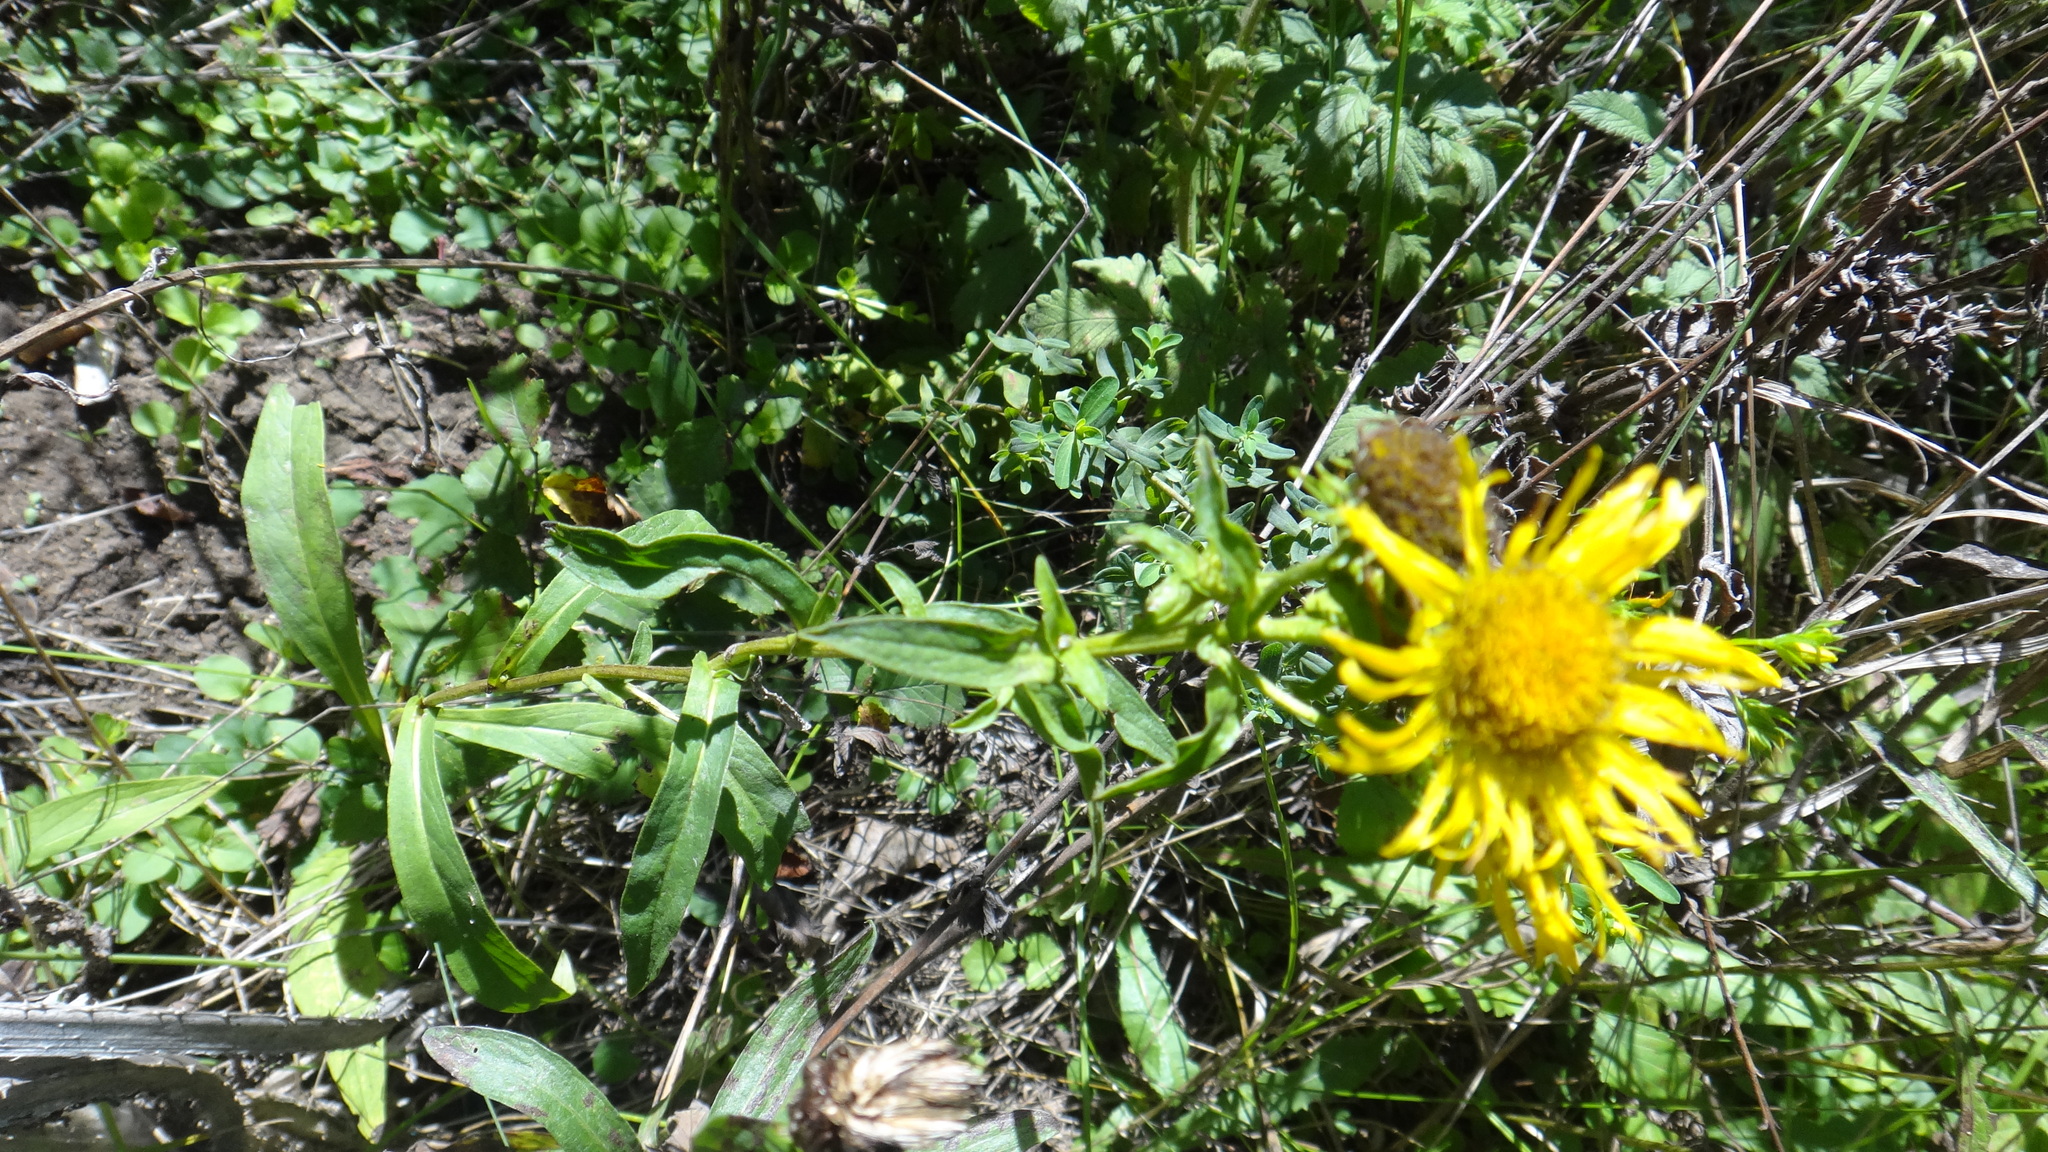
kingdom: Plantae
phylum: Tracheophyta
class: Magnoliopsida
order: Asterales
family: Asteraceae
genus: Pentanema
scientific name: Pentanema britannicum
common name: British elecampane
